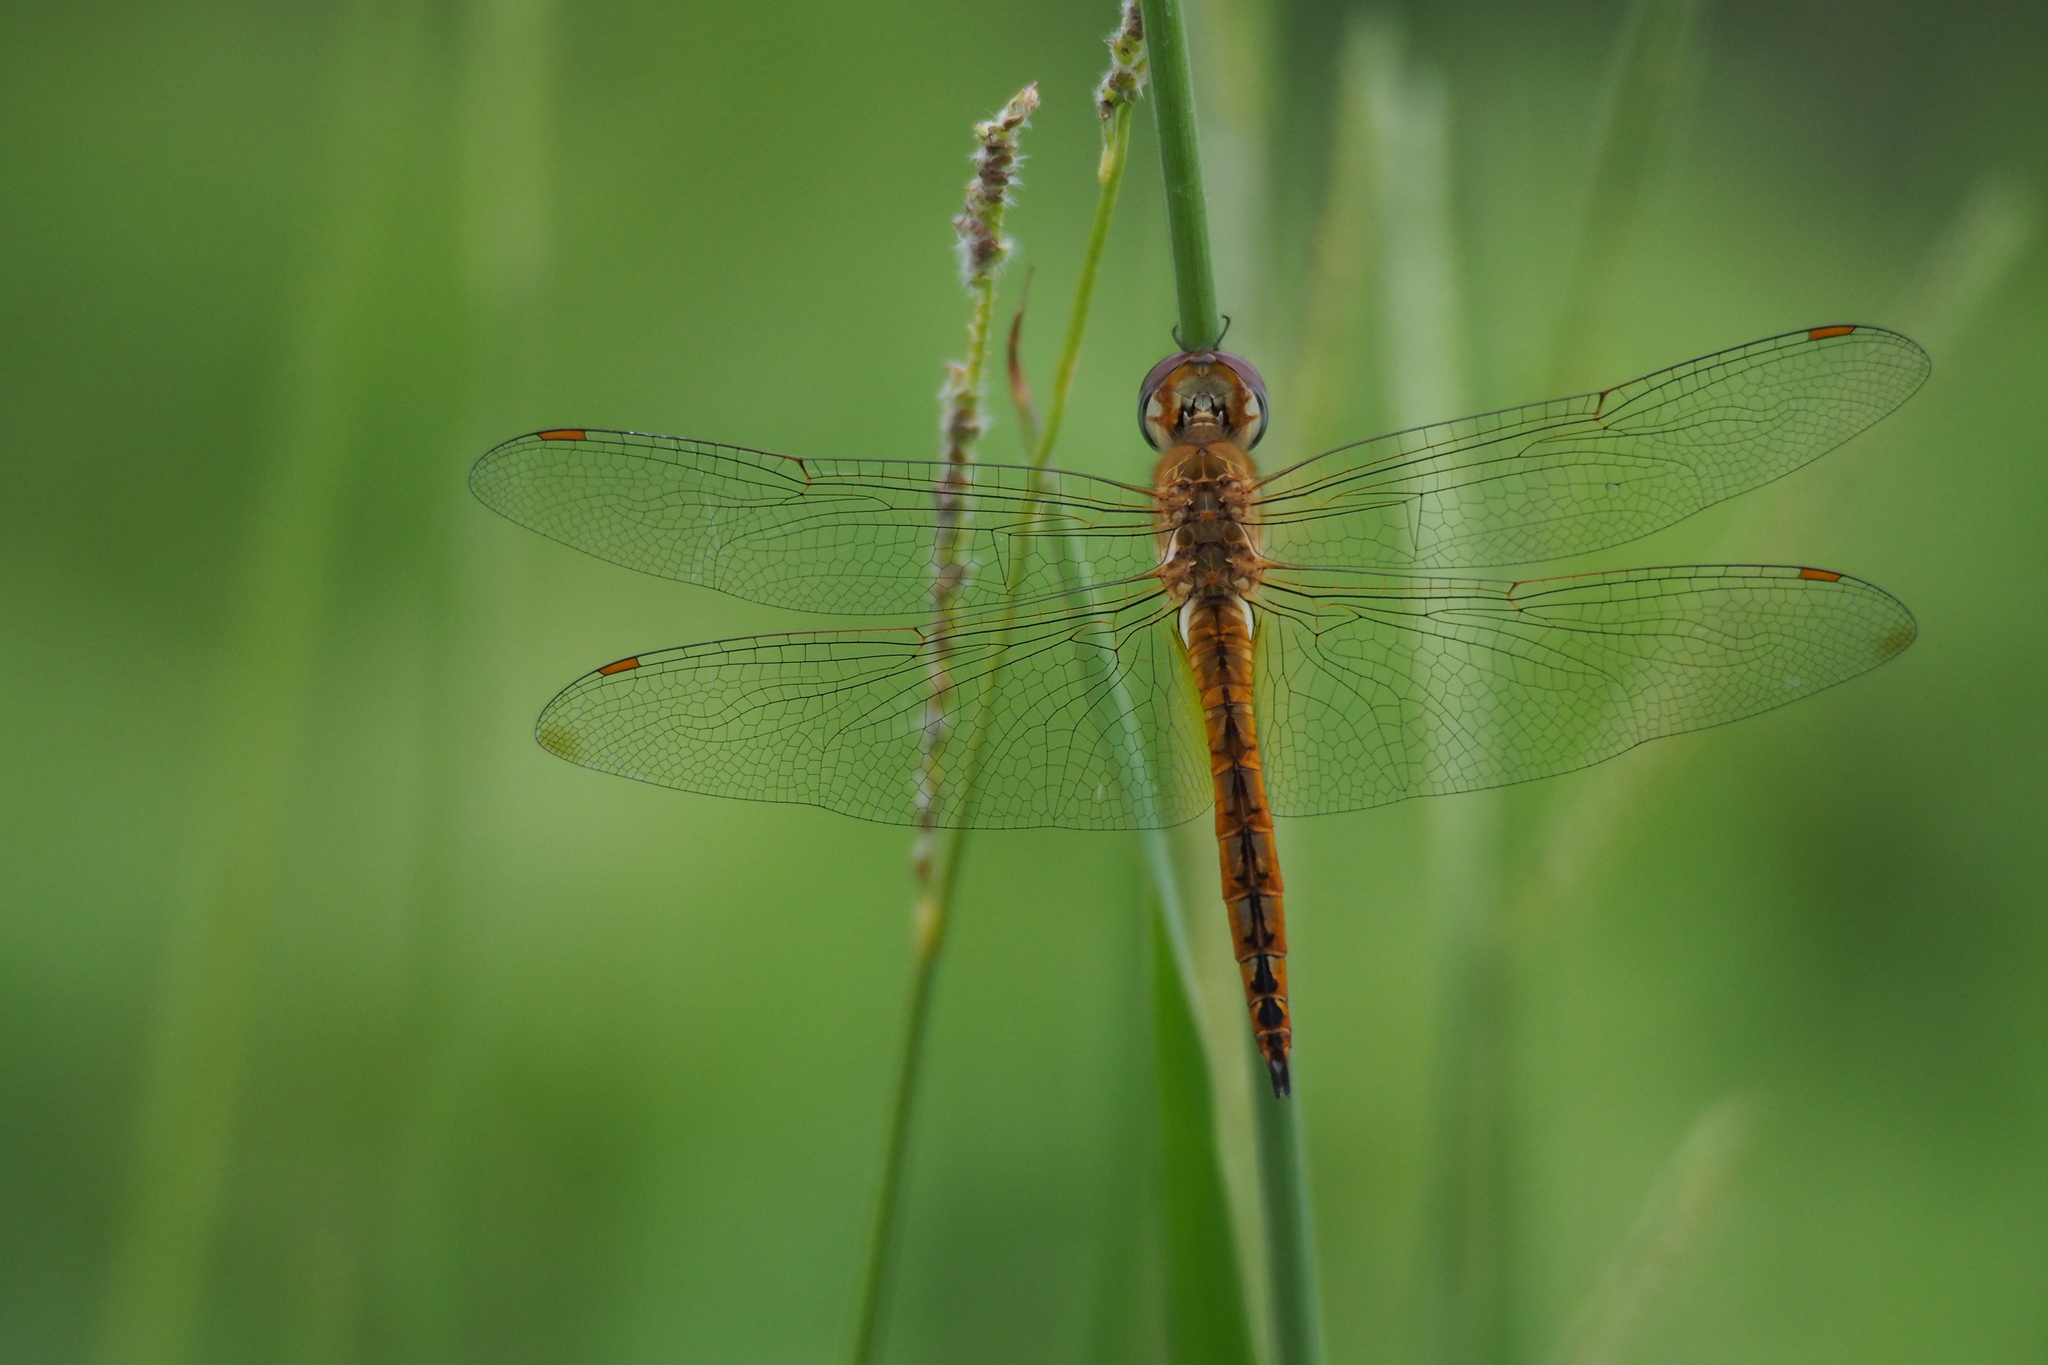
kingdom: Animalia
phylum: Arthropoda
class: Insecta
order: Odonata
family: Libellulidae
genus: Pantala
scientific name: Pantala flavescens
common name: Wandering glider
